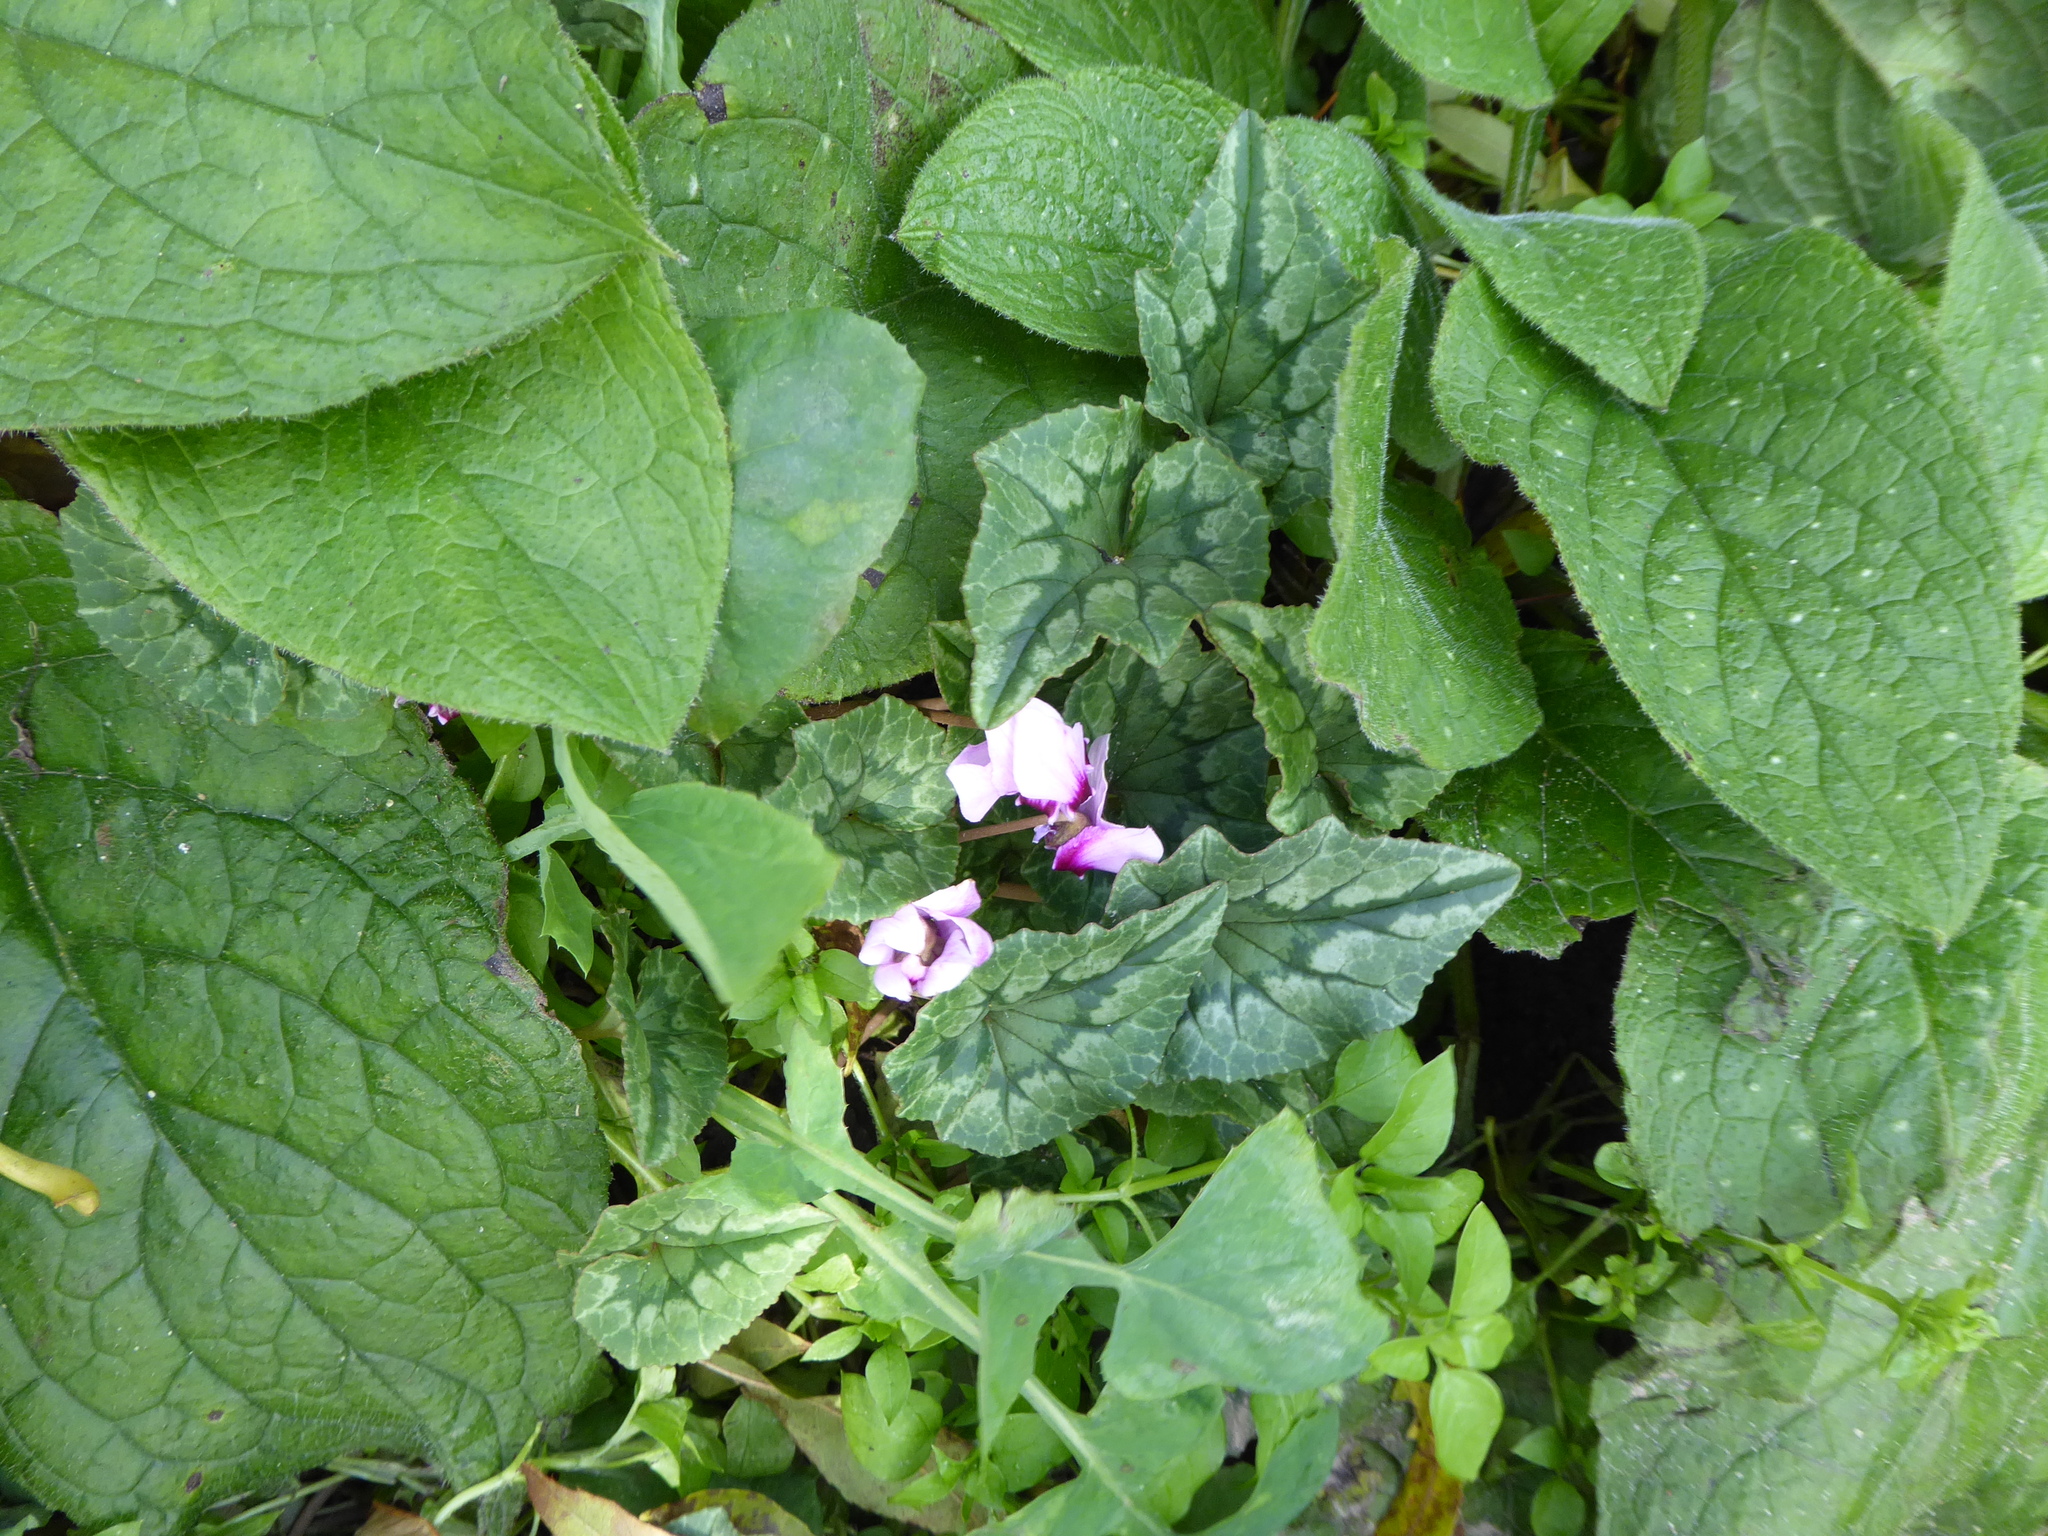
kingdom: Plantae
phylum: Tracheophyta
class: Magnoliopsida
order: Ericales
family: Primulaceae
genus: Cyclamen
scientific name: Cyclamen hederifolium
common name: Sowbread
